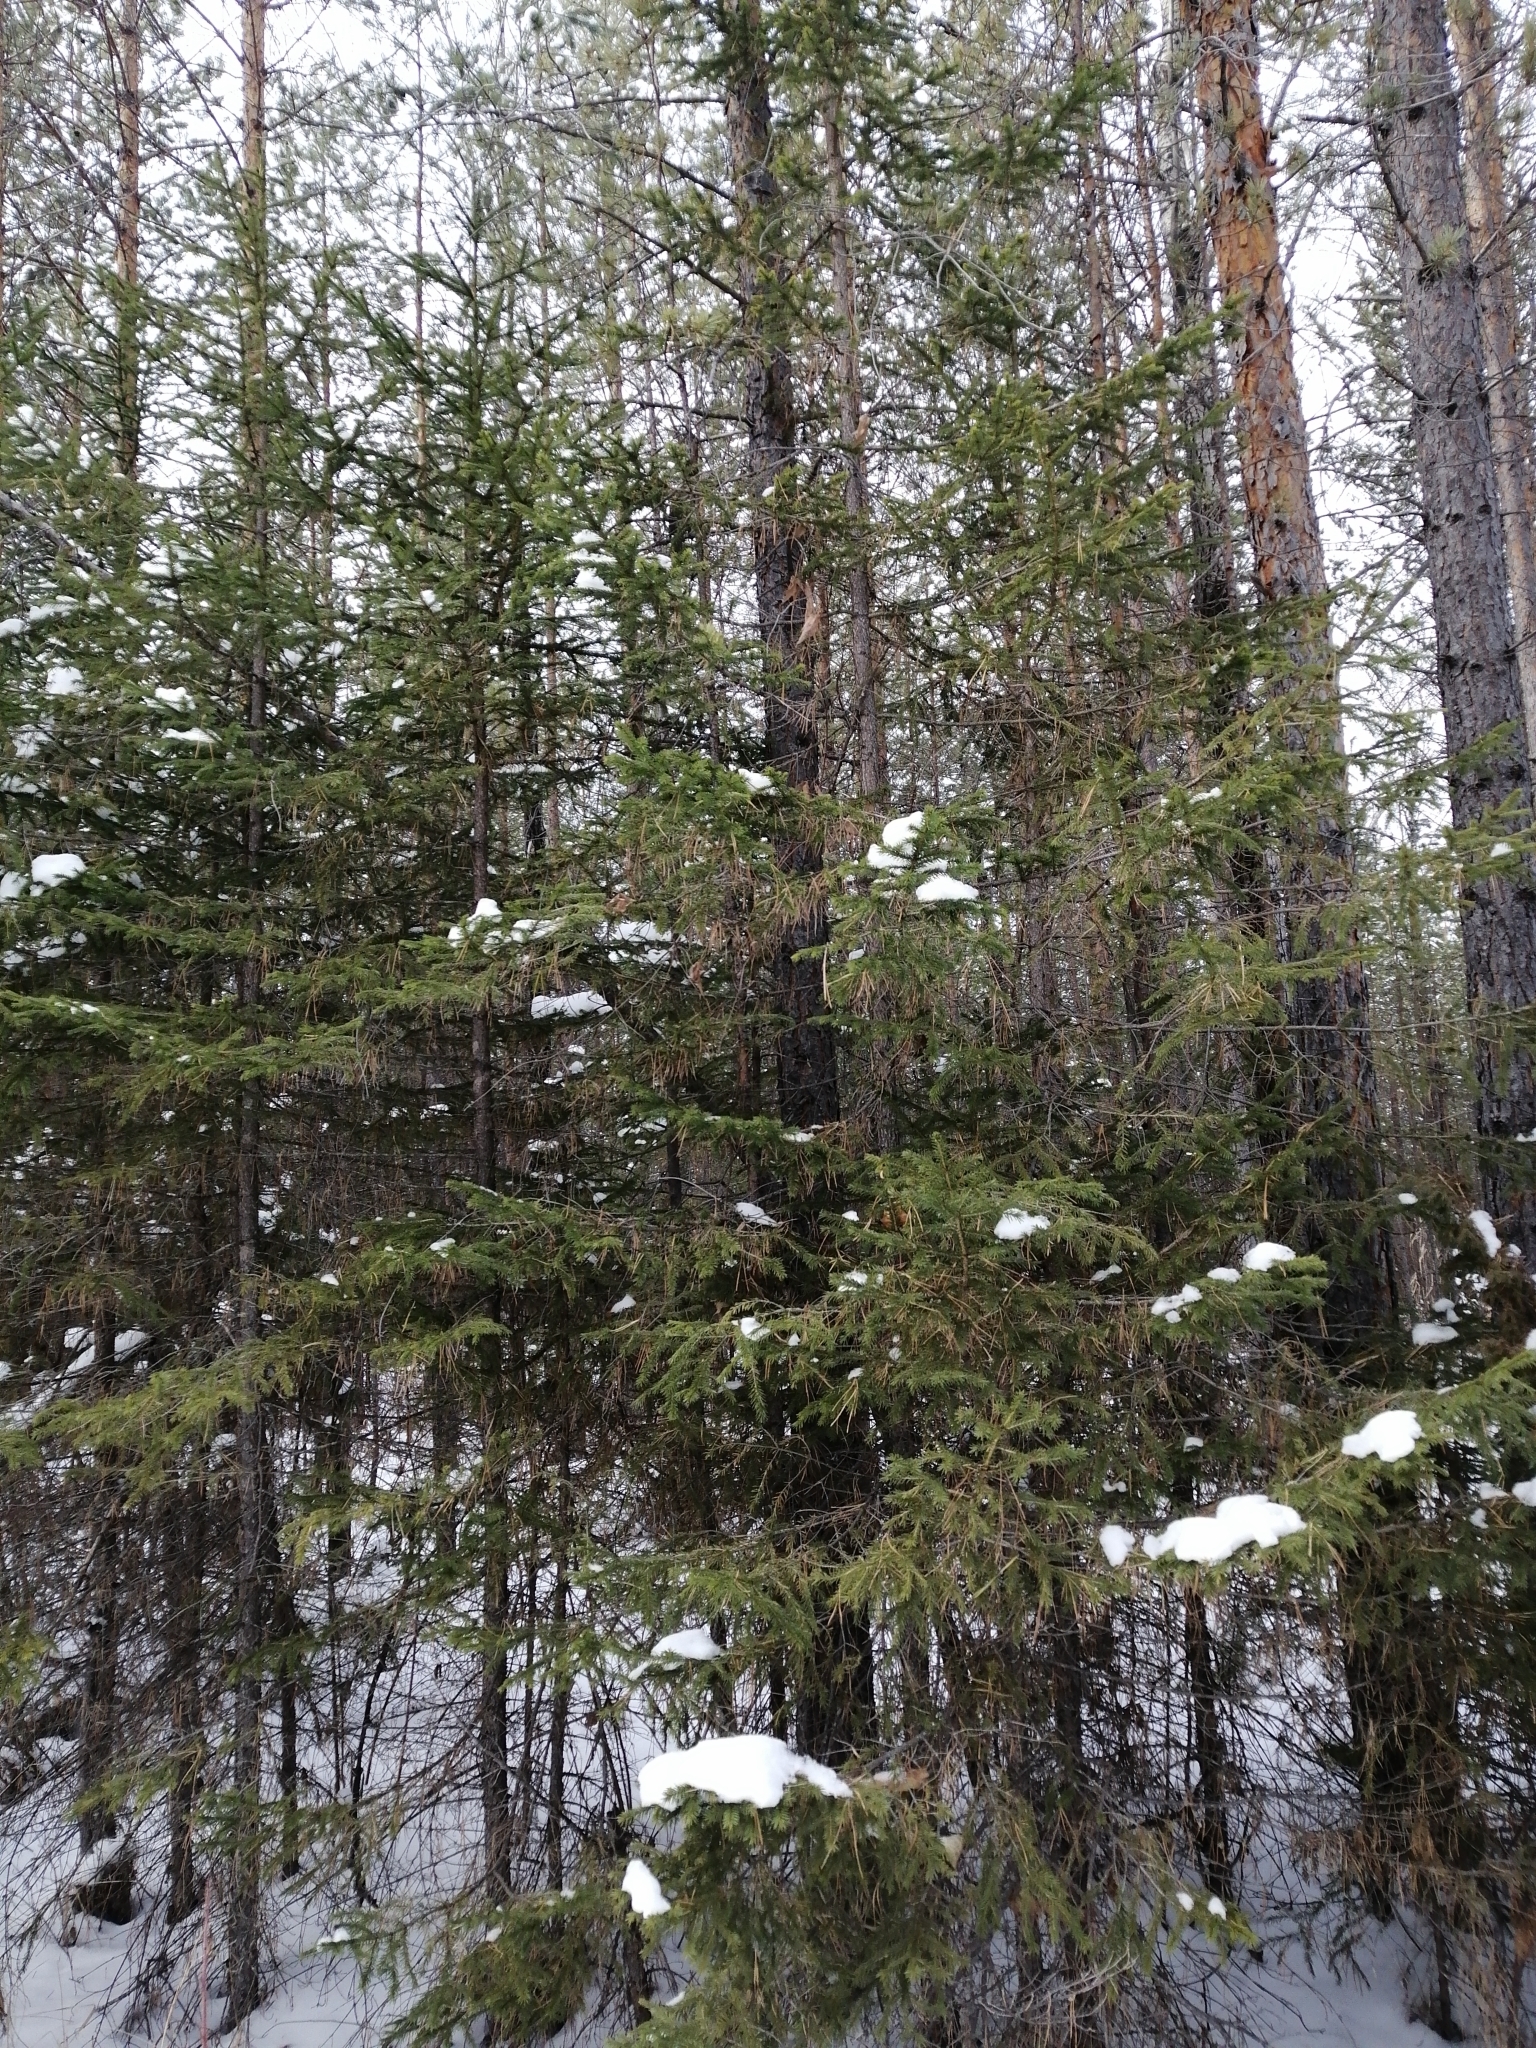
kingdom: Plantae
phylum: Tracheophyta
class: Pinopsida
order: Pinales
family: Pinaceae
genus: Picea
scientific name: Picea obovata
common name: Siberian spruce
